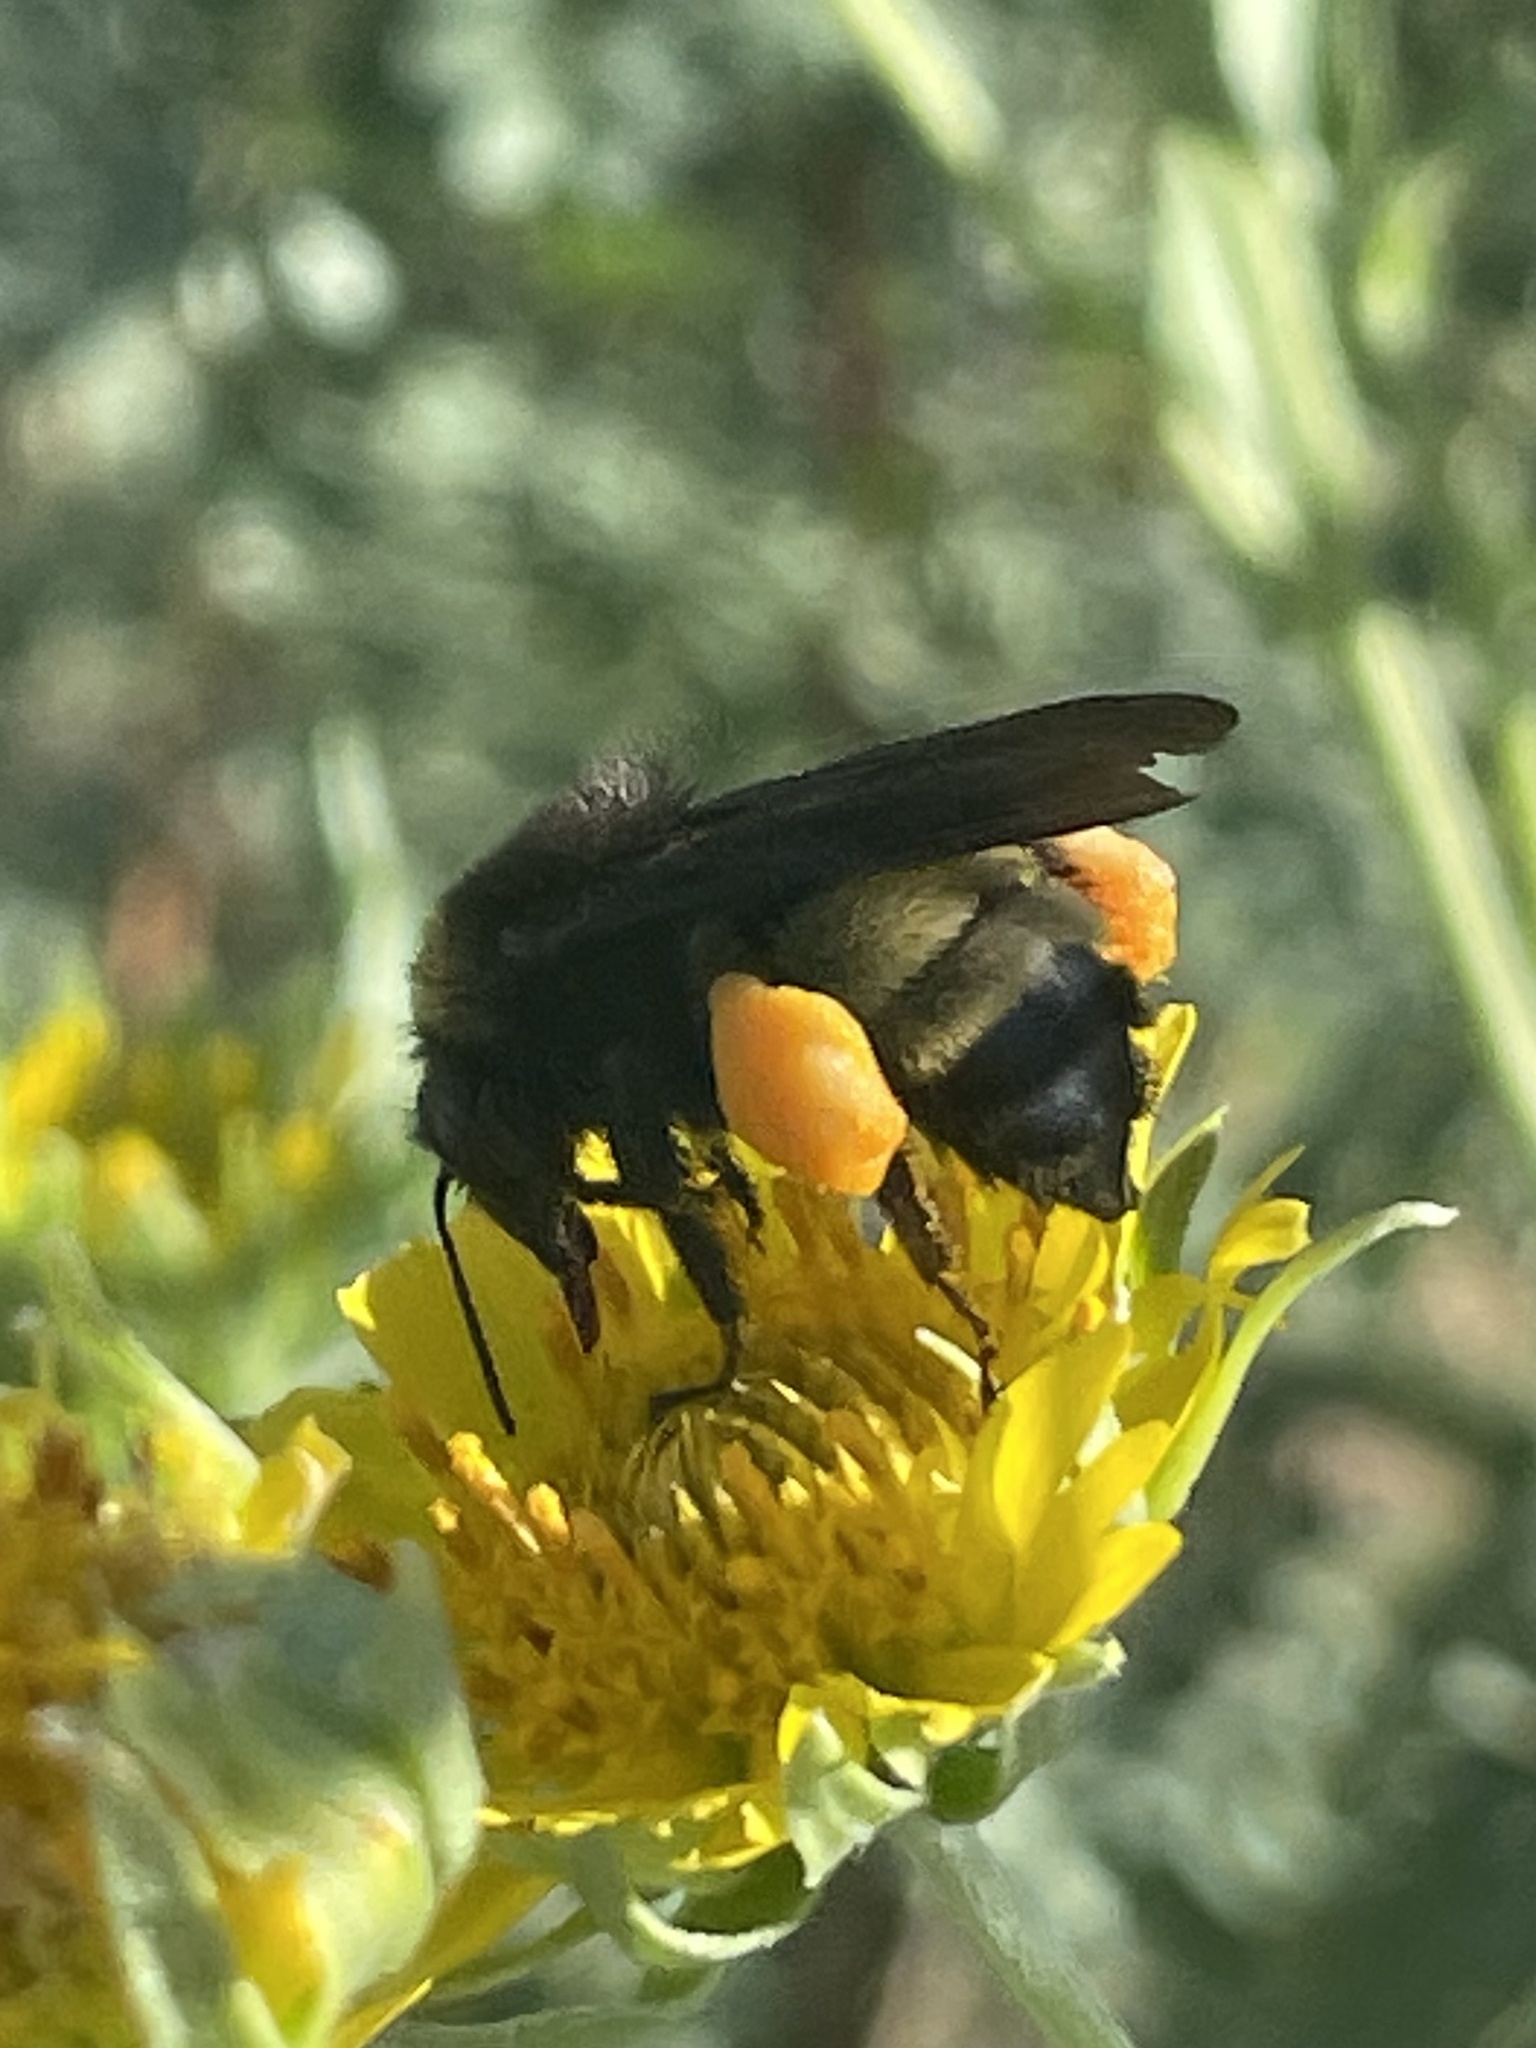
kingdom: Animalia
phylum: Arthropoda
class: Insecta
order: Hymenoptera
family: Apidae
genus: Bombus
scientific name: Bombus pensylvanicus
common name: Bumble bee
